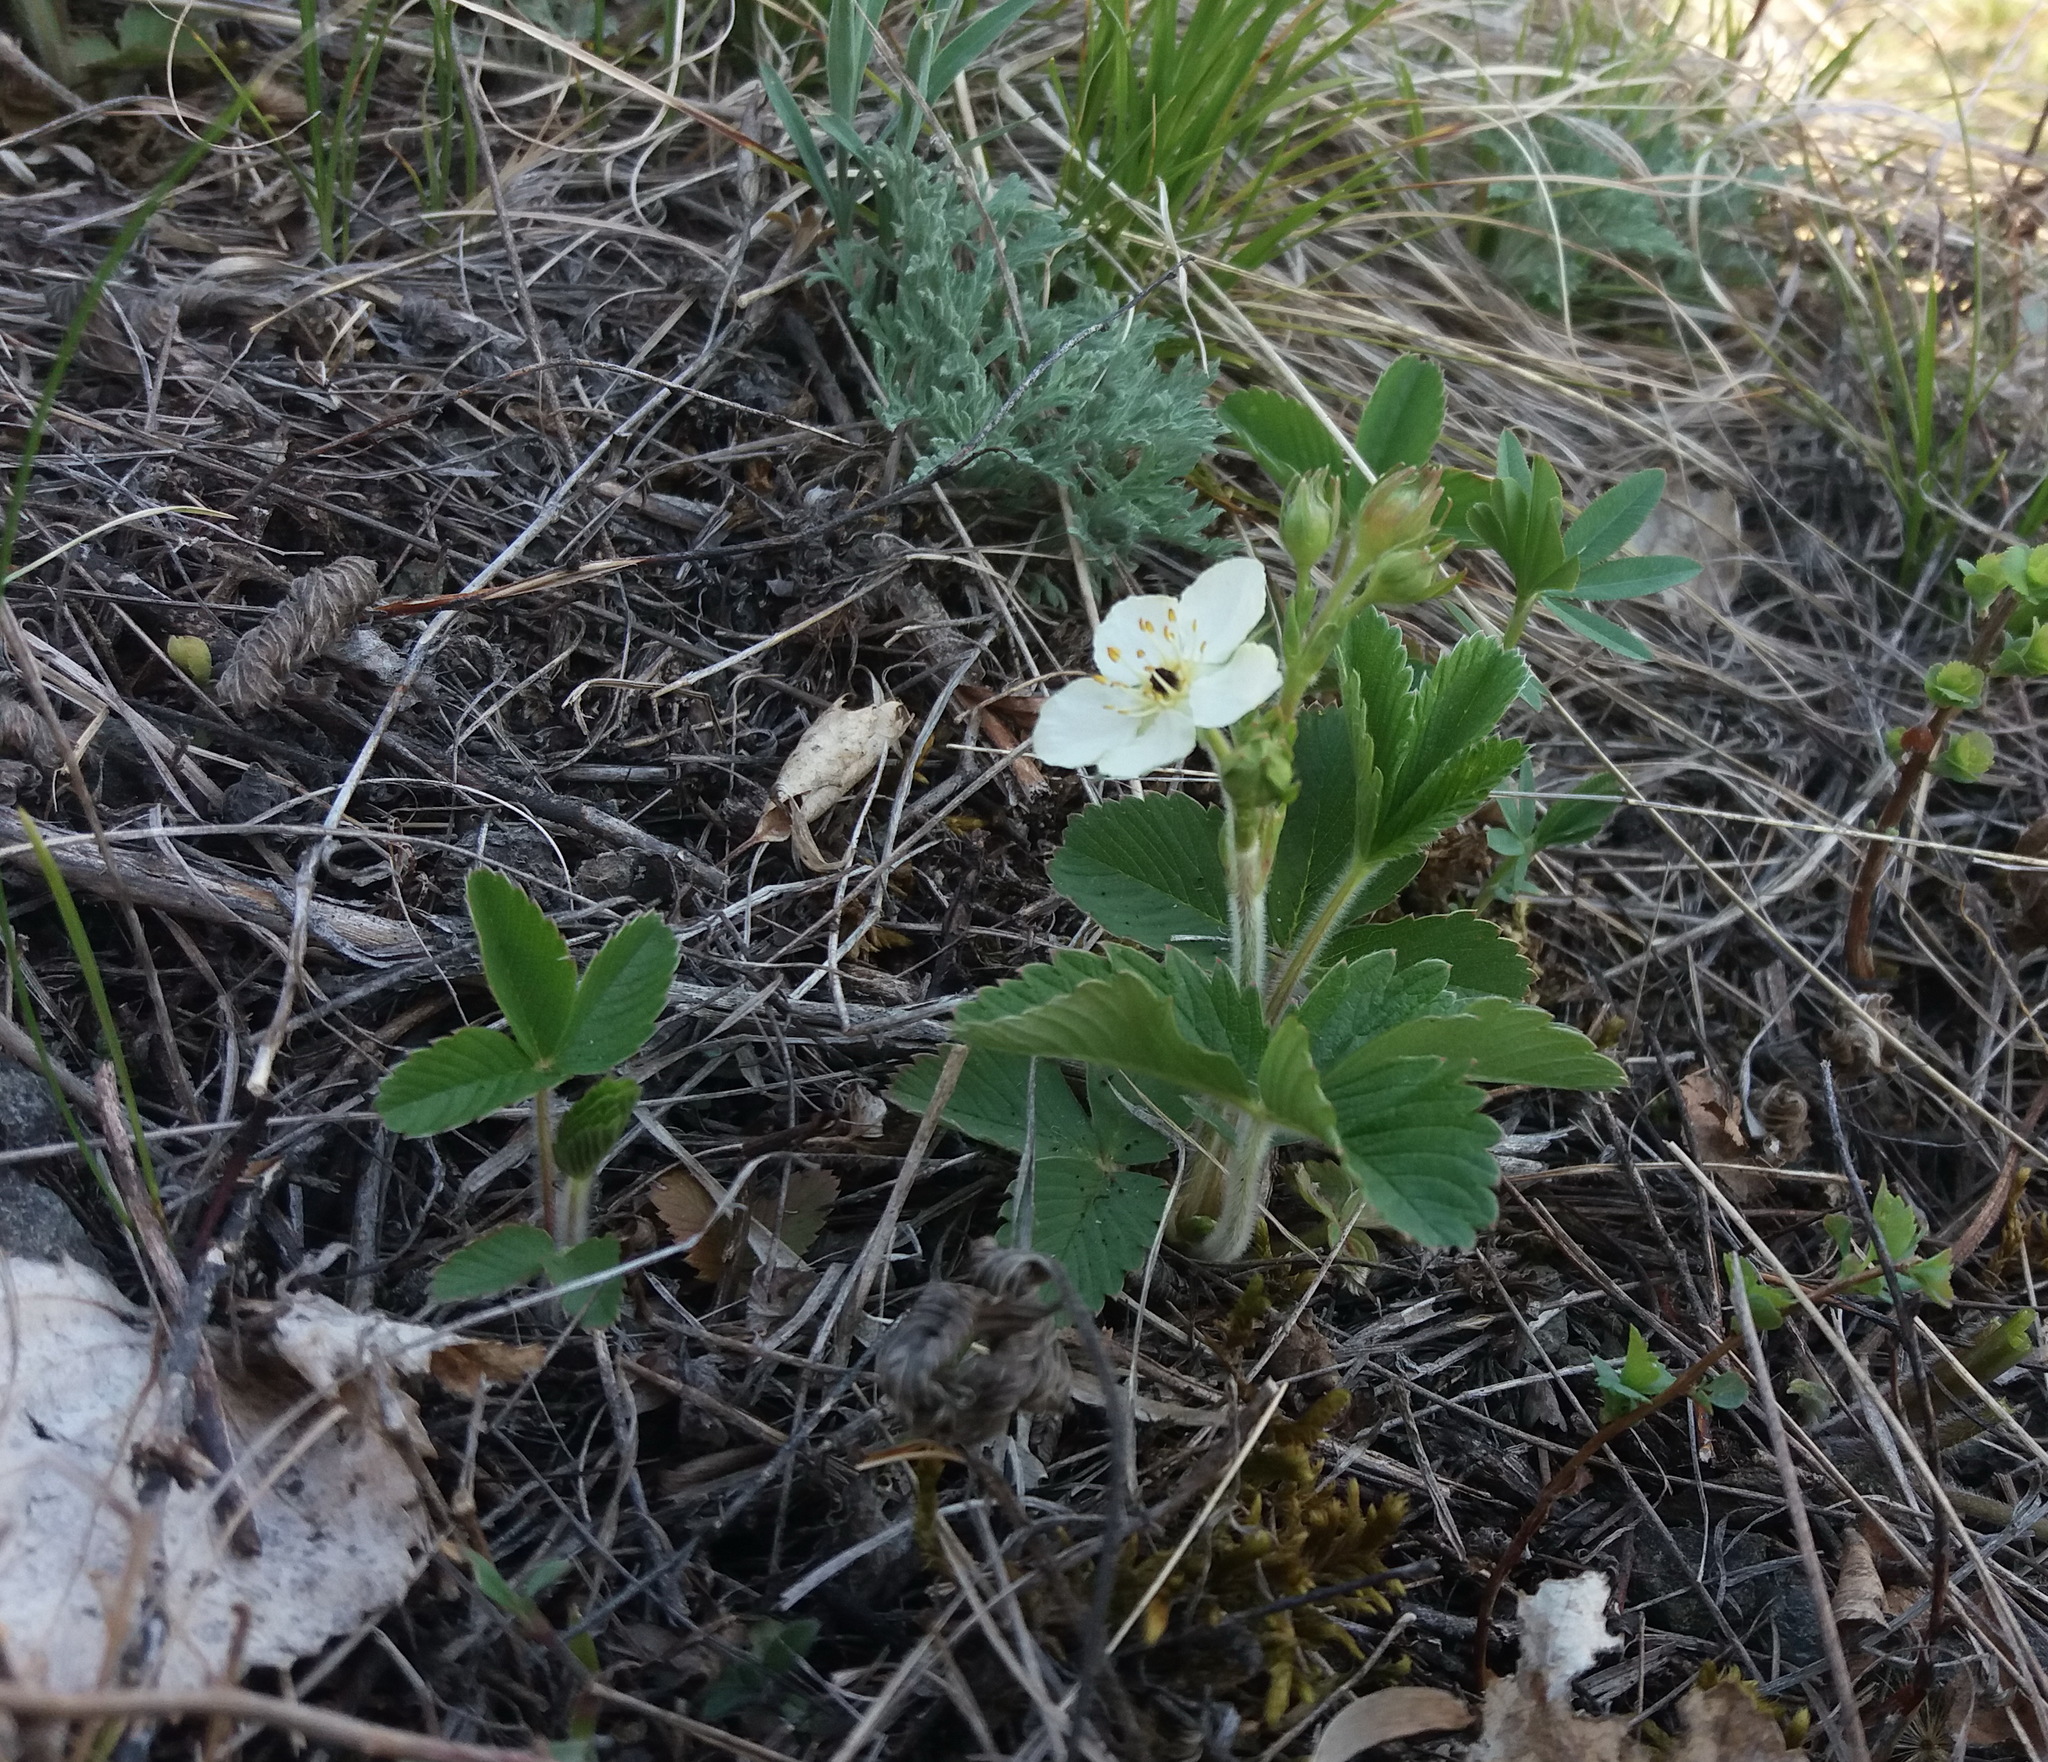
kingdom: Plantae
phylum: Tracheophyta
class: Magnoliopsida
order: Rosales
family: Rosaceae
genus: Fragaria
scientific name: Fragaria viridis
